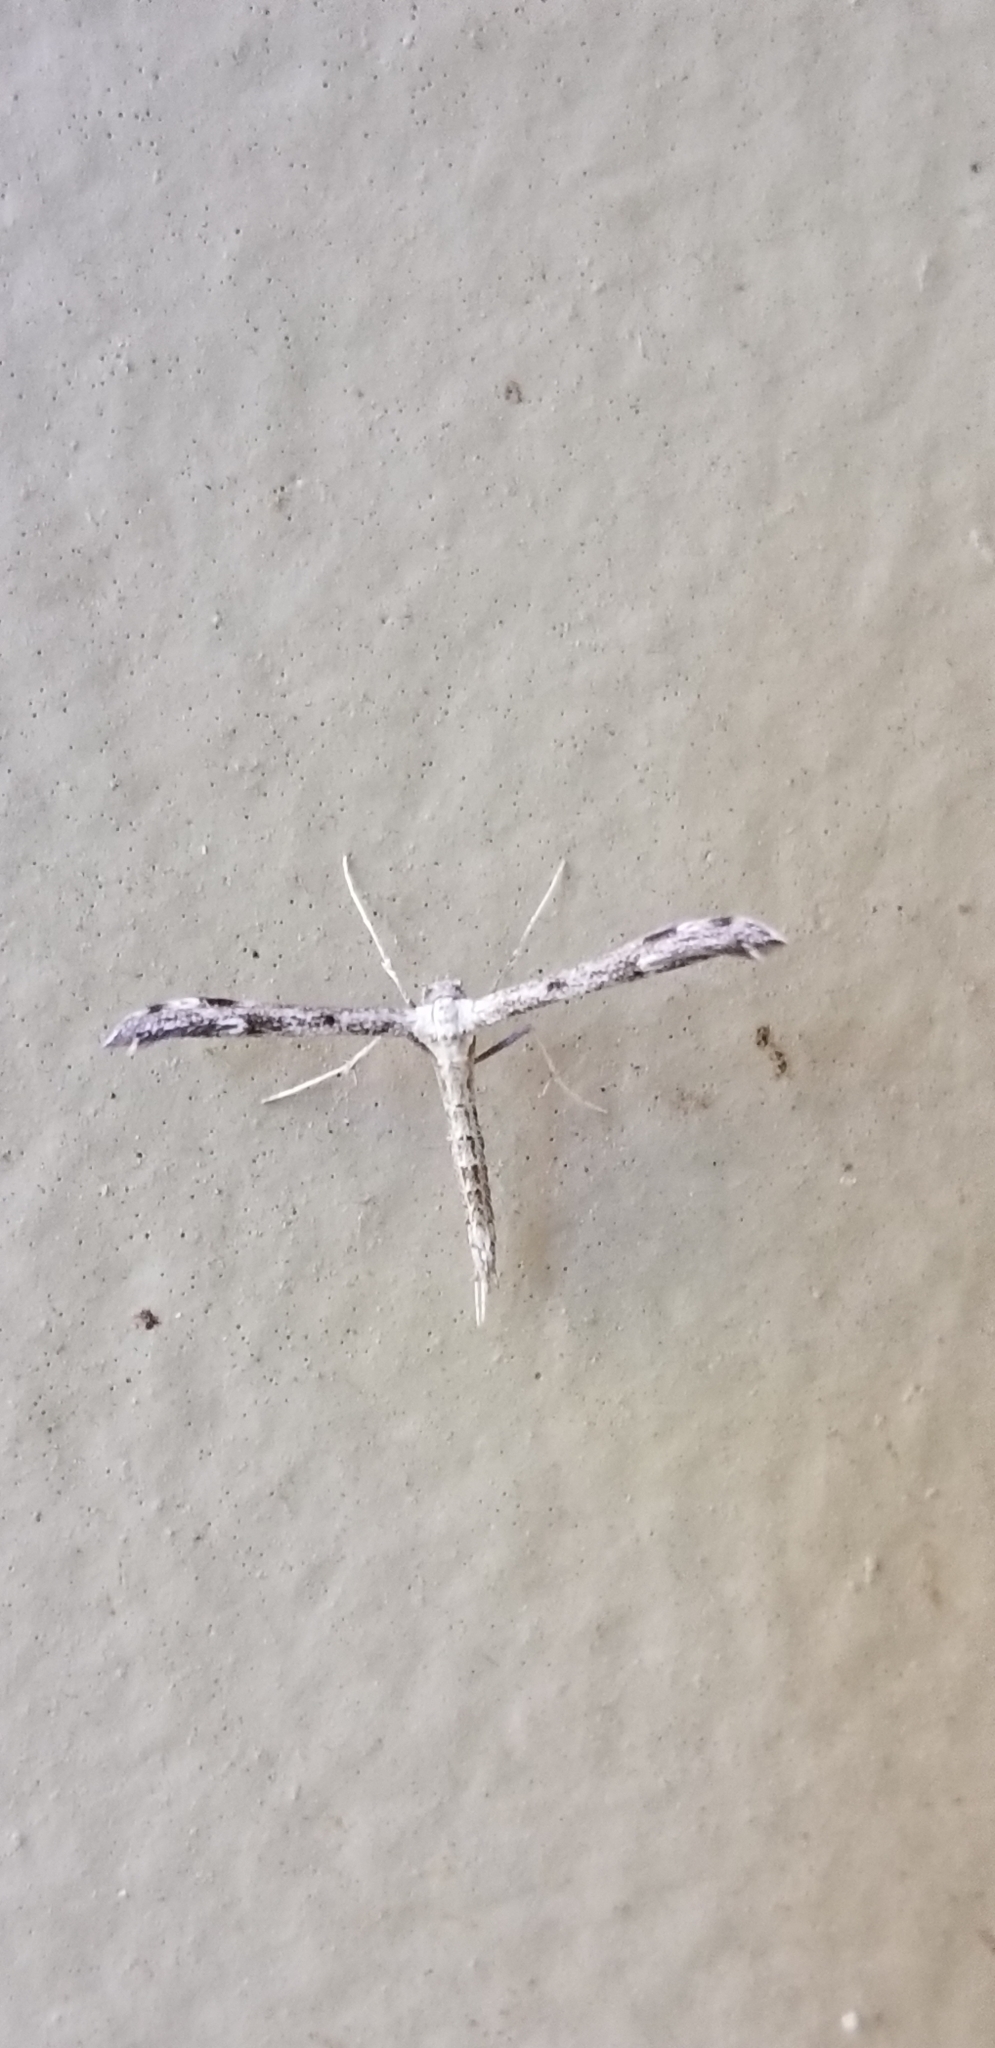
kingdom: Animalia
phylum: Arthropoda
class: Insecta
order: Lepidoptera
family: Pterophoridae
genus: Hellinsia
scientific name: Hellinsia inquinatus
